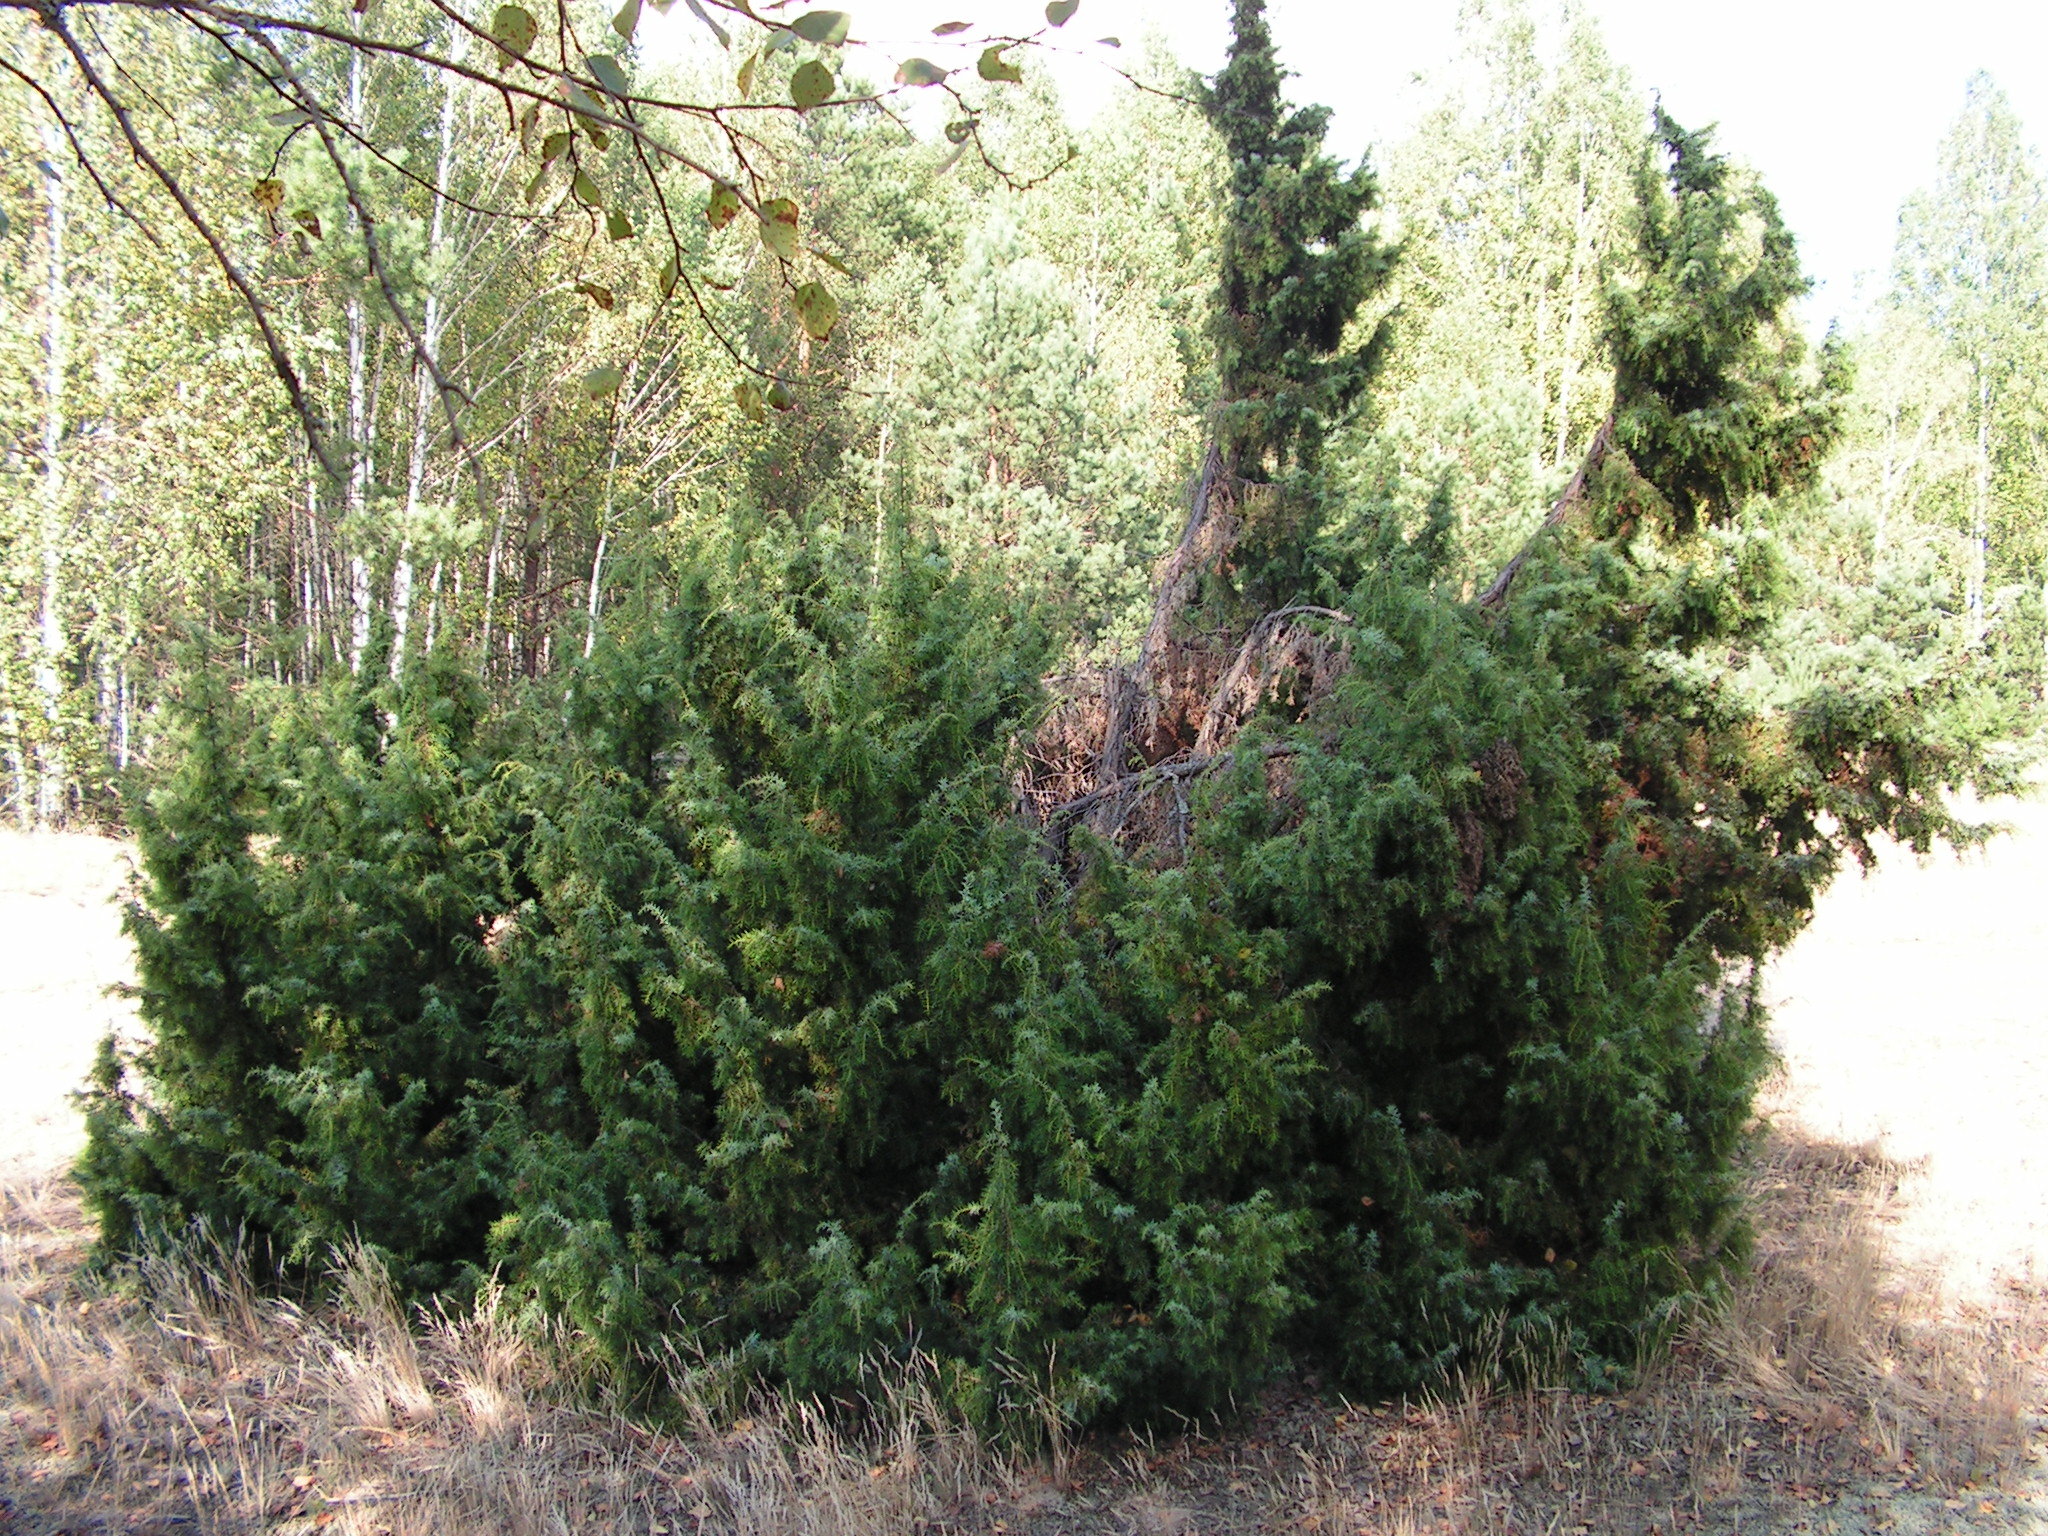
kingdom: Plantae
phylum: Tracheophyta
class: Pinopsida
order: Pinales
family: Cupressaceae
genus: Juniperus
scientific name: Juniperus communis
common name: Common juniper
